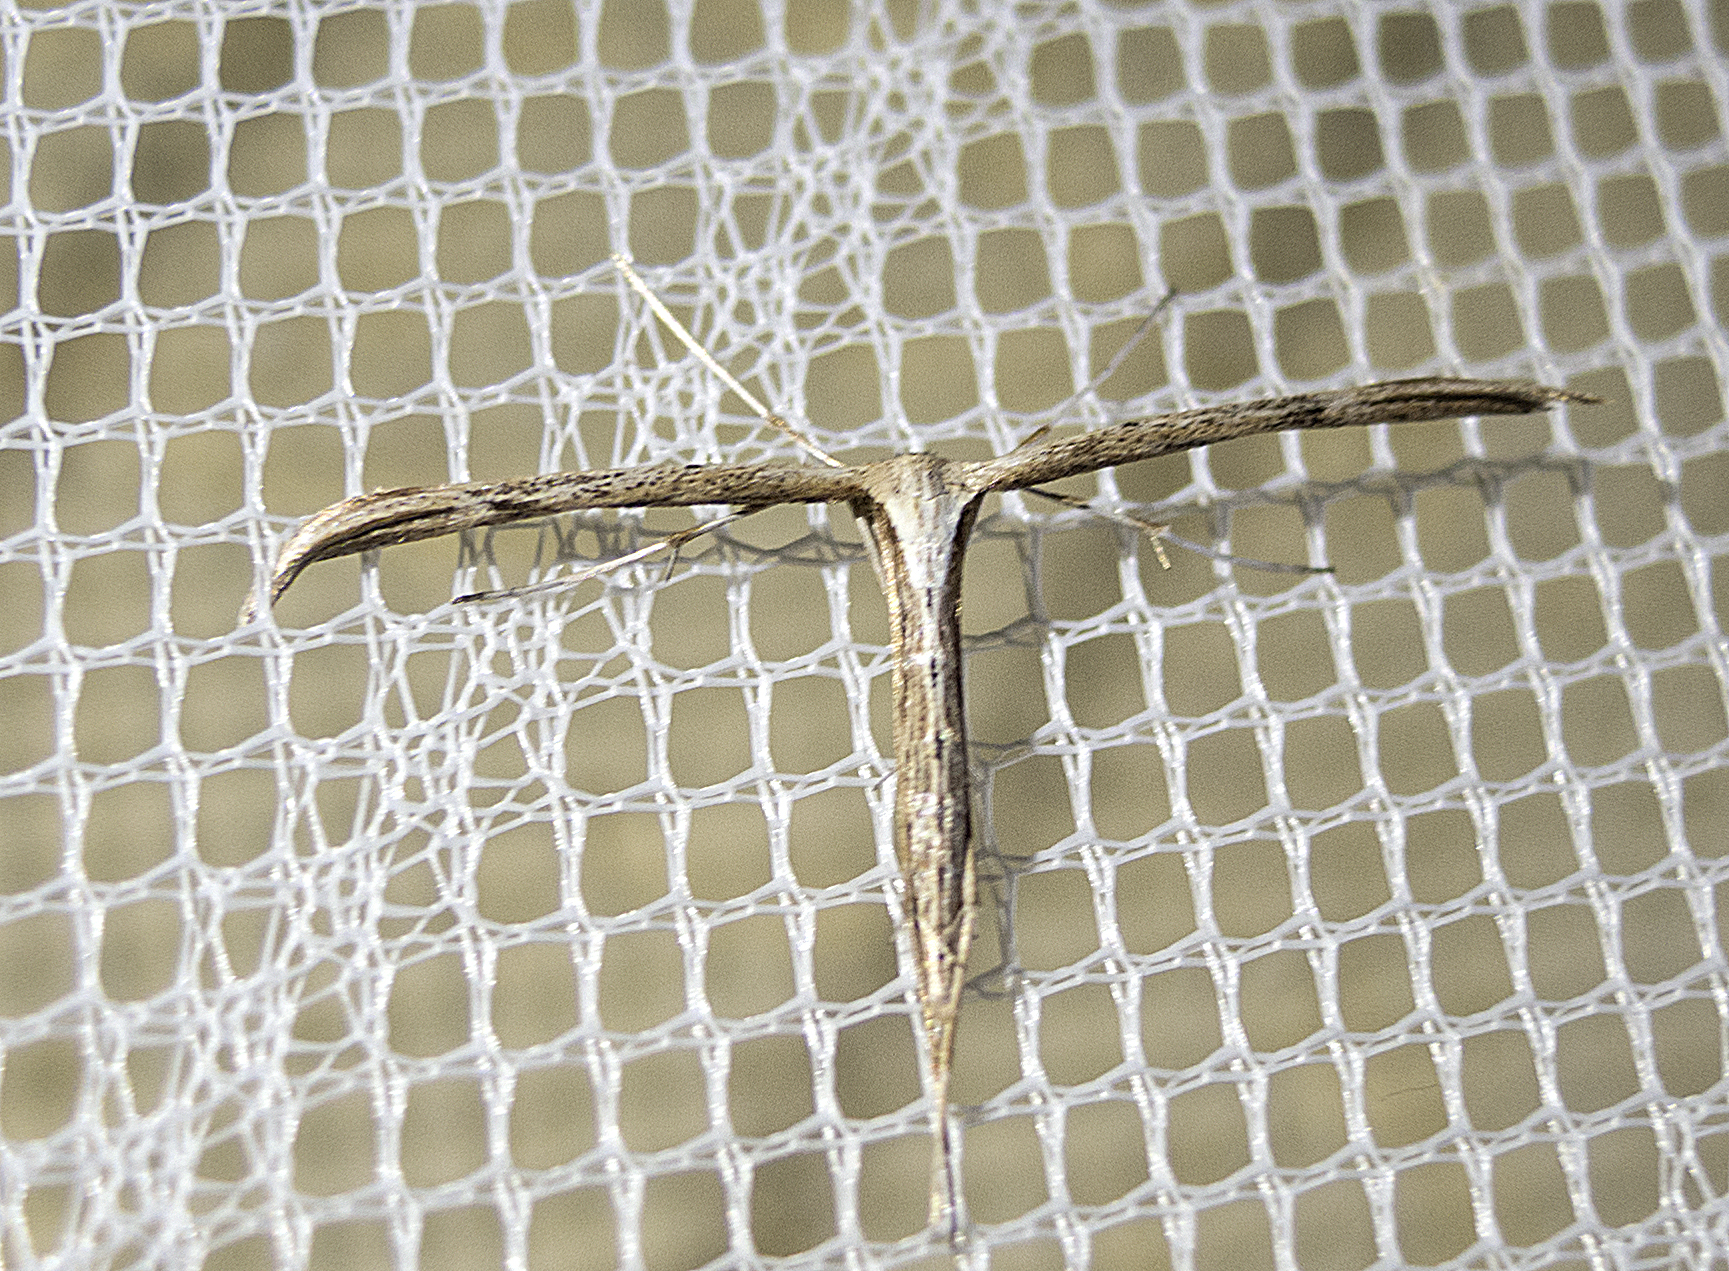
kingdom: Animalia
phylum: Arthropoda
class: Insecta
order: Lepidoptera
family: Pterophoridae
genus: Emmelina
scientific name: Emmelina monodactyla
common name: Common plume
